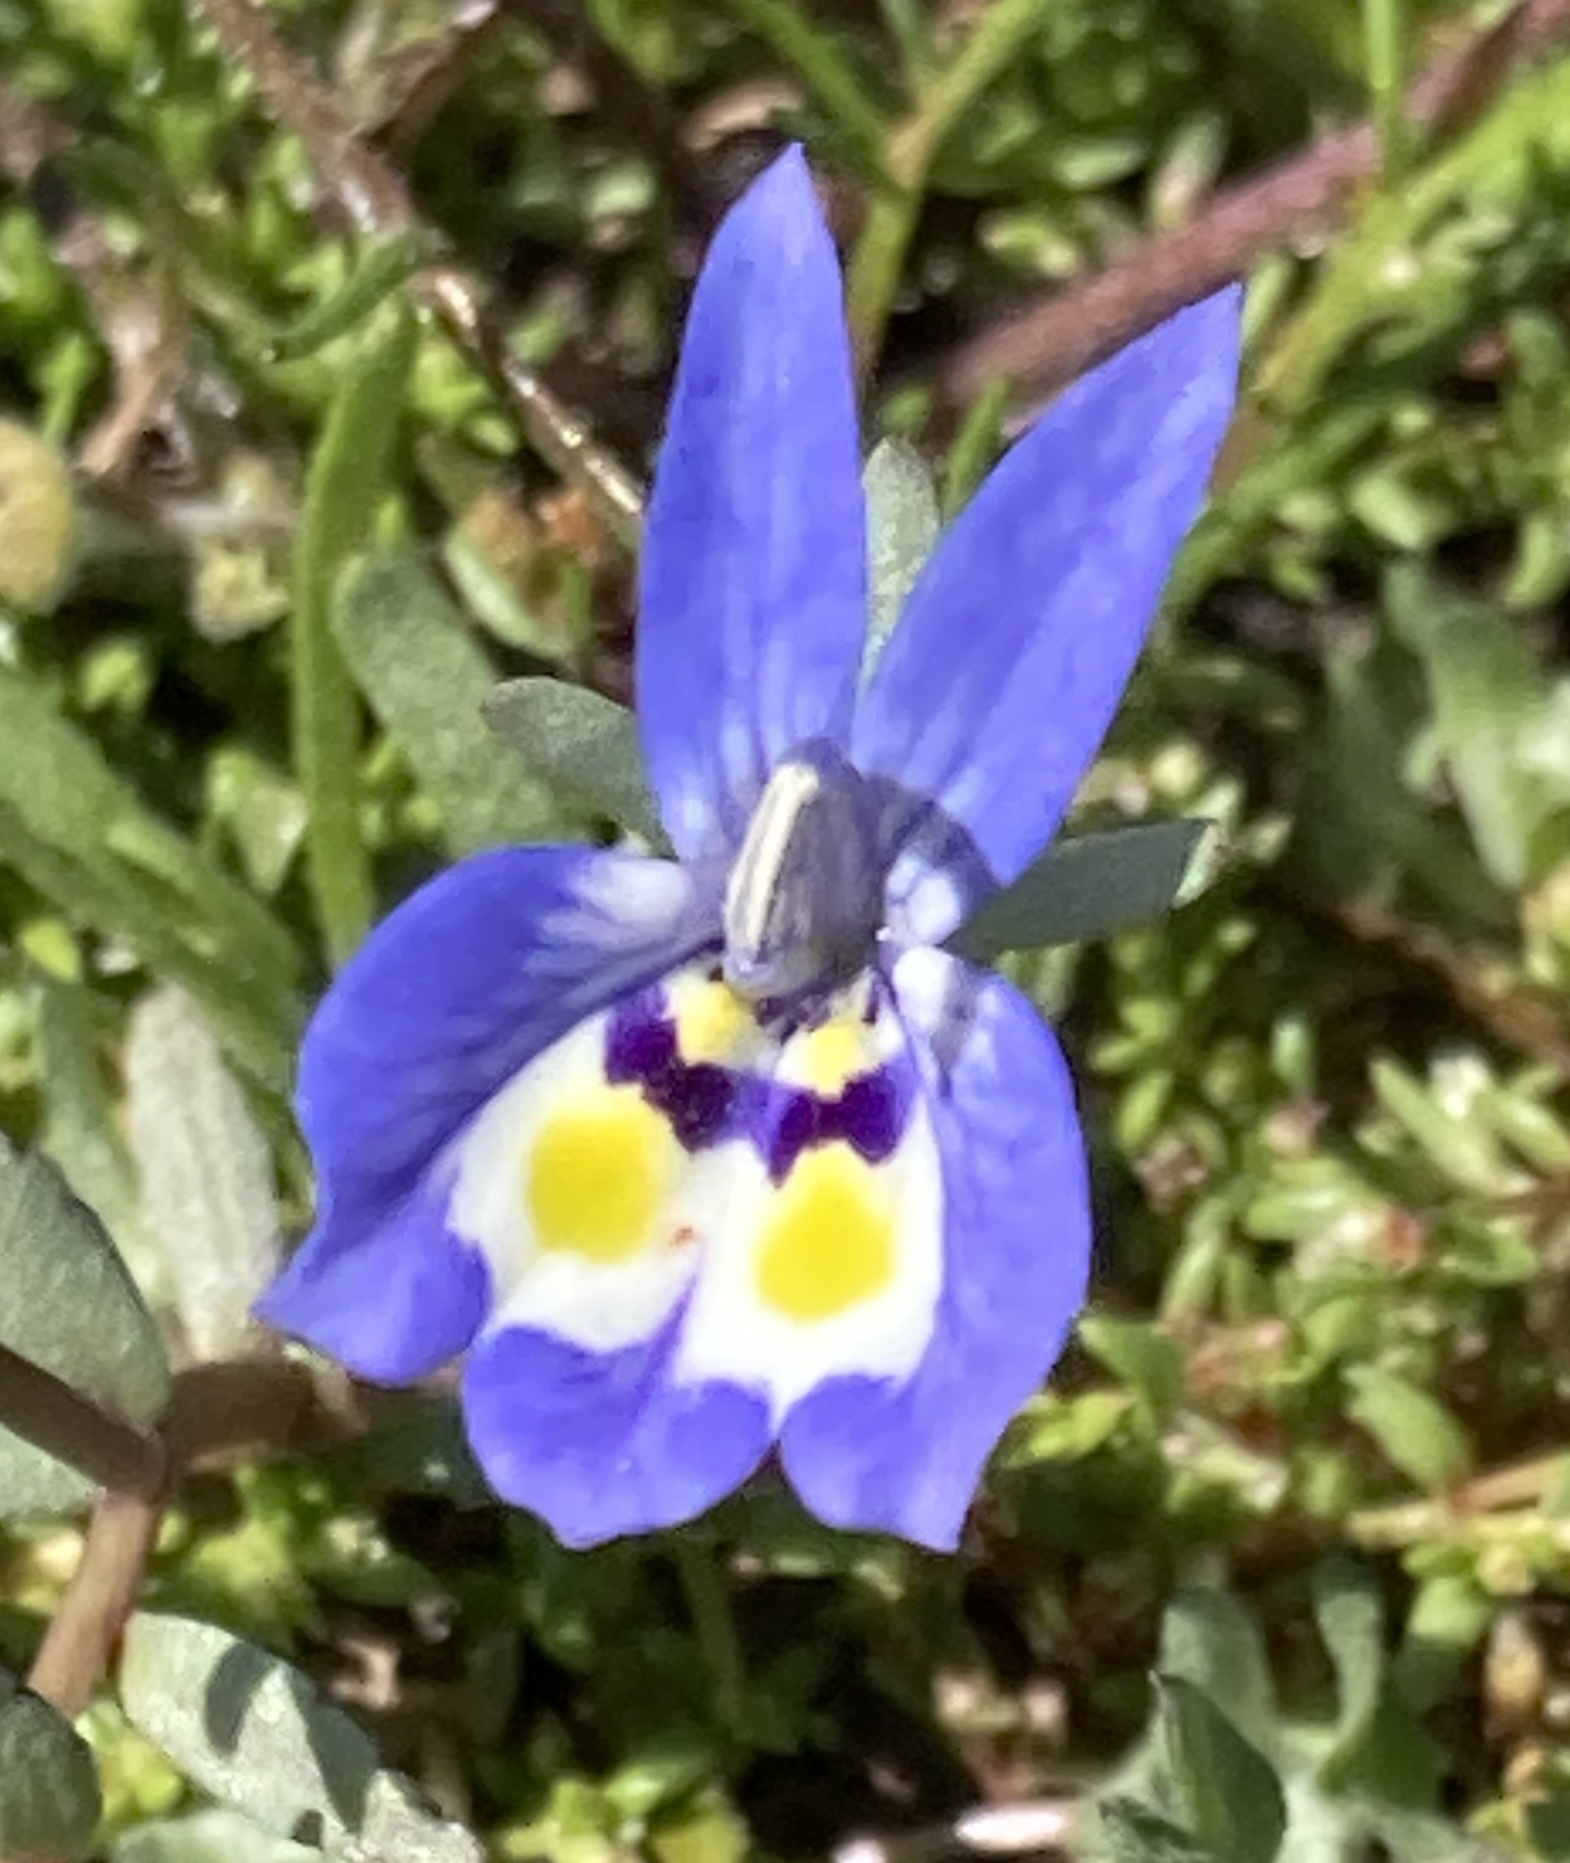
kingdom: Plantae
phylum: Tracheophyta
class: Magnoliopsida
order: Asterales
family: Campanulaceae
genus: Downingia
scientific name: Downingia insignis
